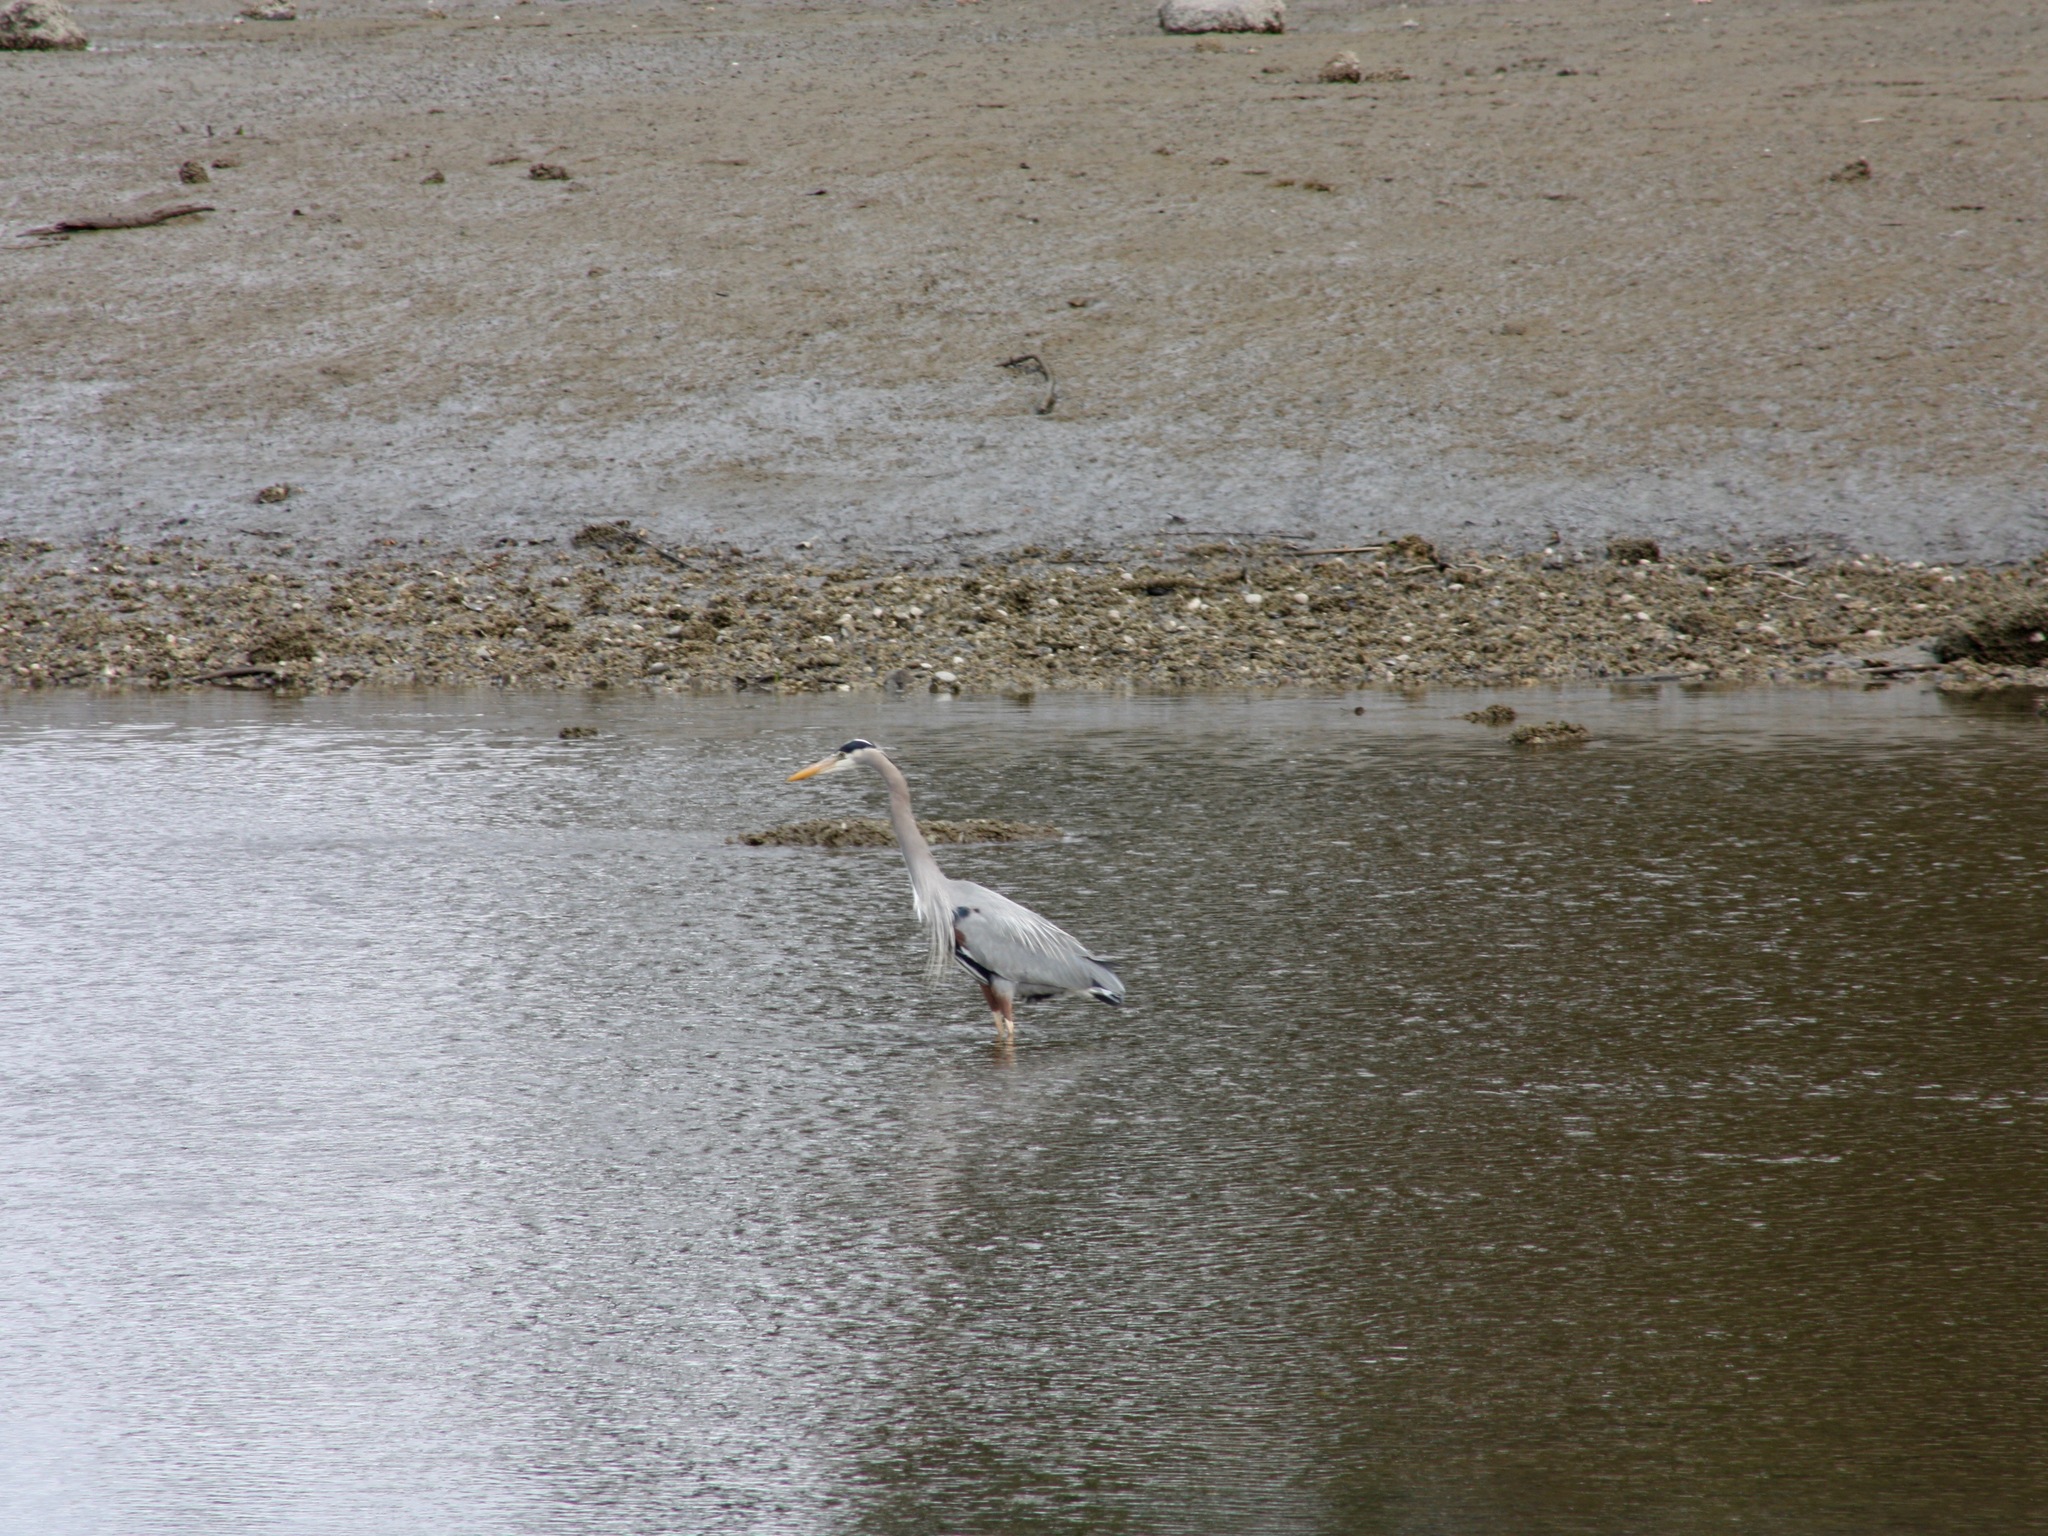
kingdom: Animalia
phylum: Chordata
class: Aves
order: Pelecaniformes
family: Ardeidae
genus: Ardea
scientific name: Ardea herodias
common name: Great blue heron
